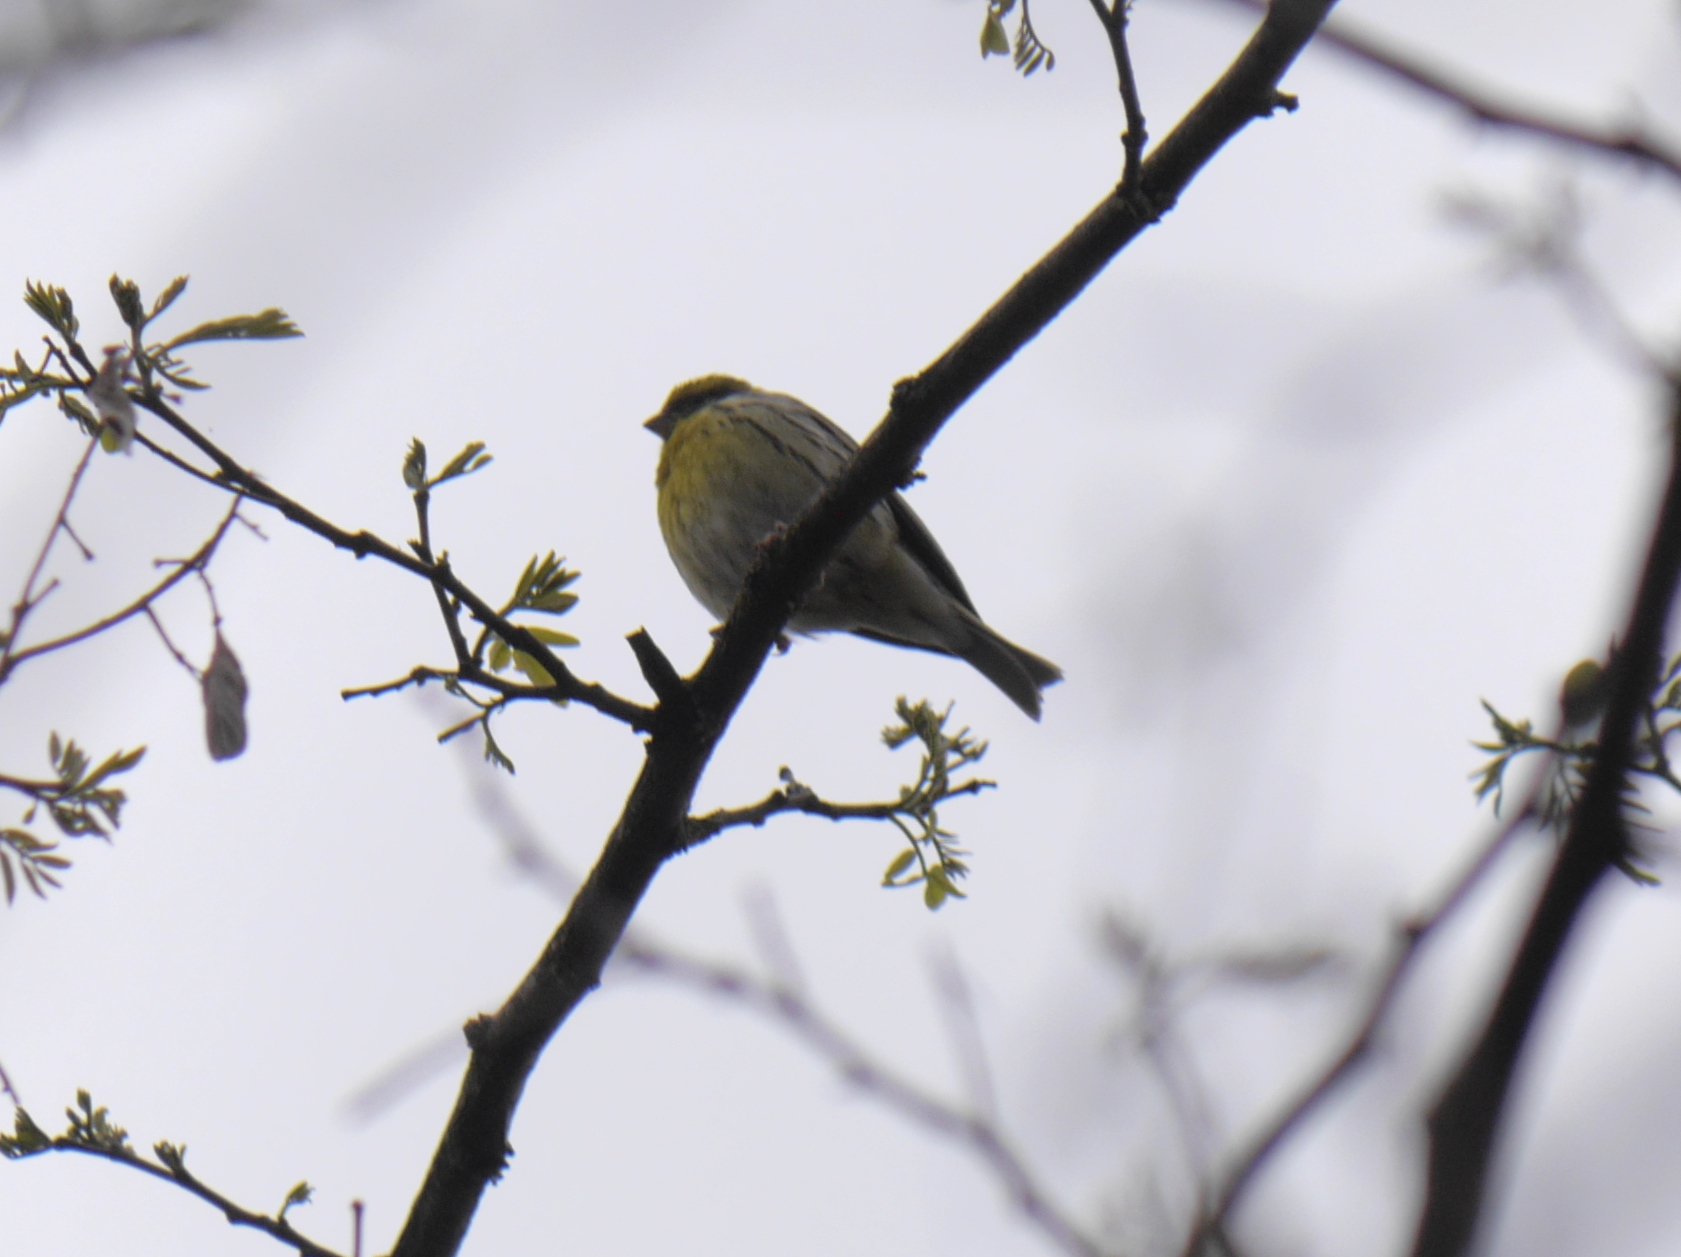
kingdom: Animalia
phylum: Chordata
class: Aves
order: Passeriformes
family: Fringillidae
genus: Serinus
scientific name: Serinus serinus
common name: European serin
